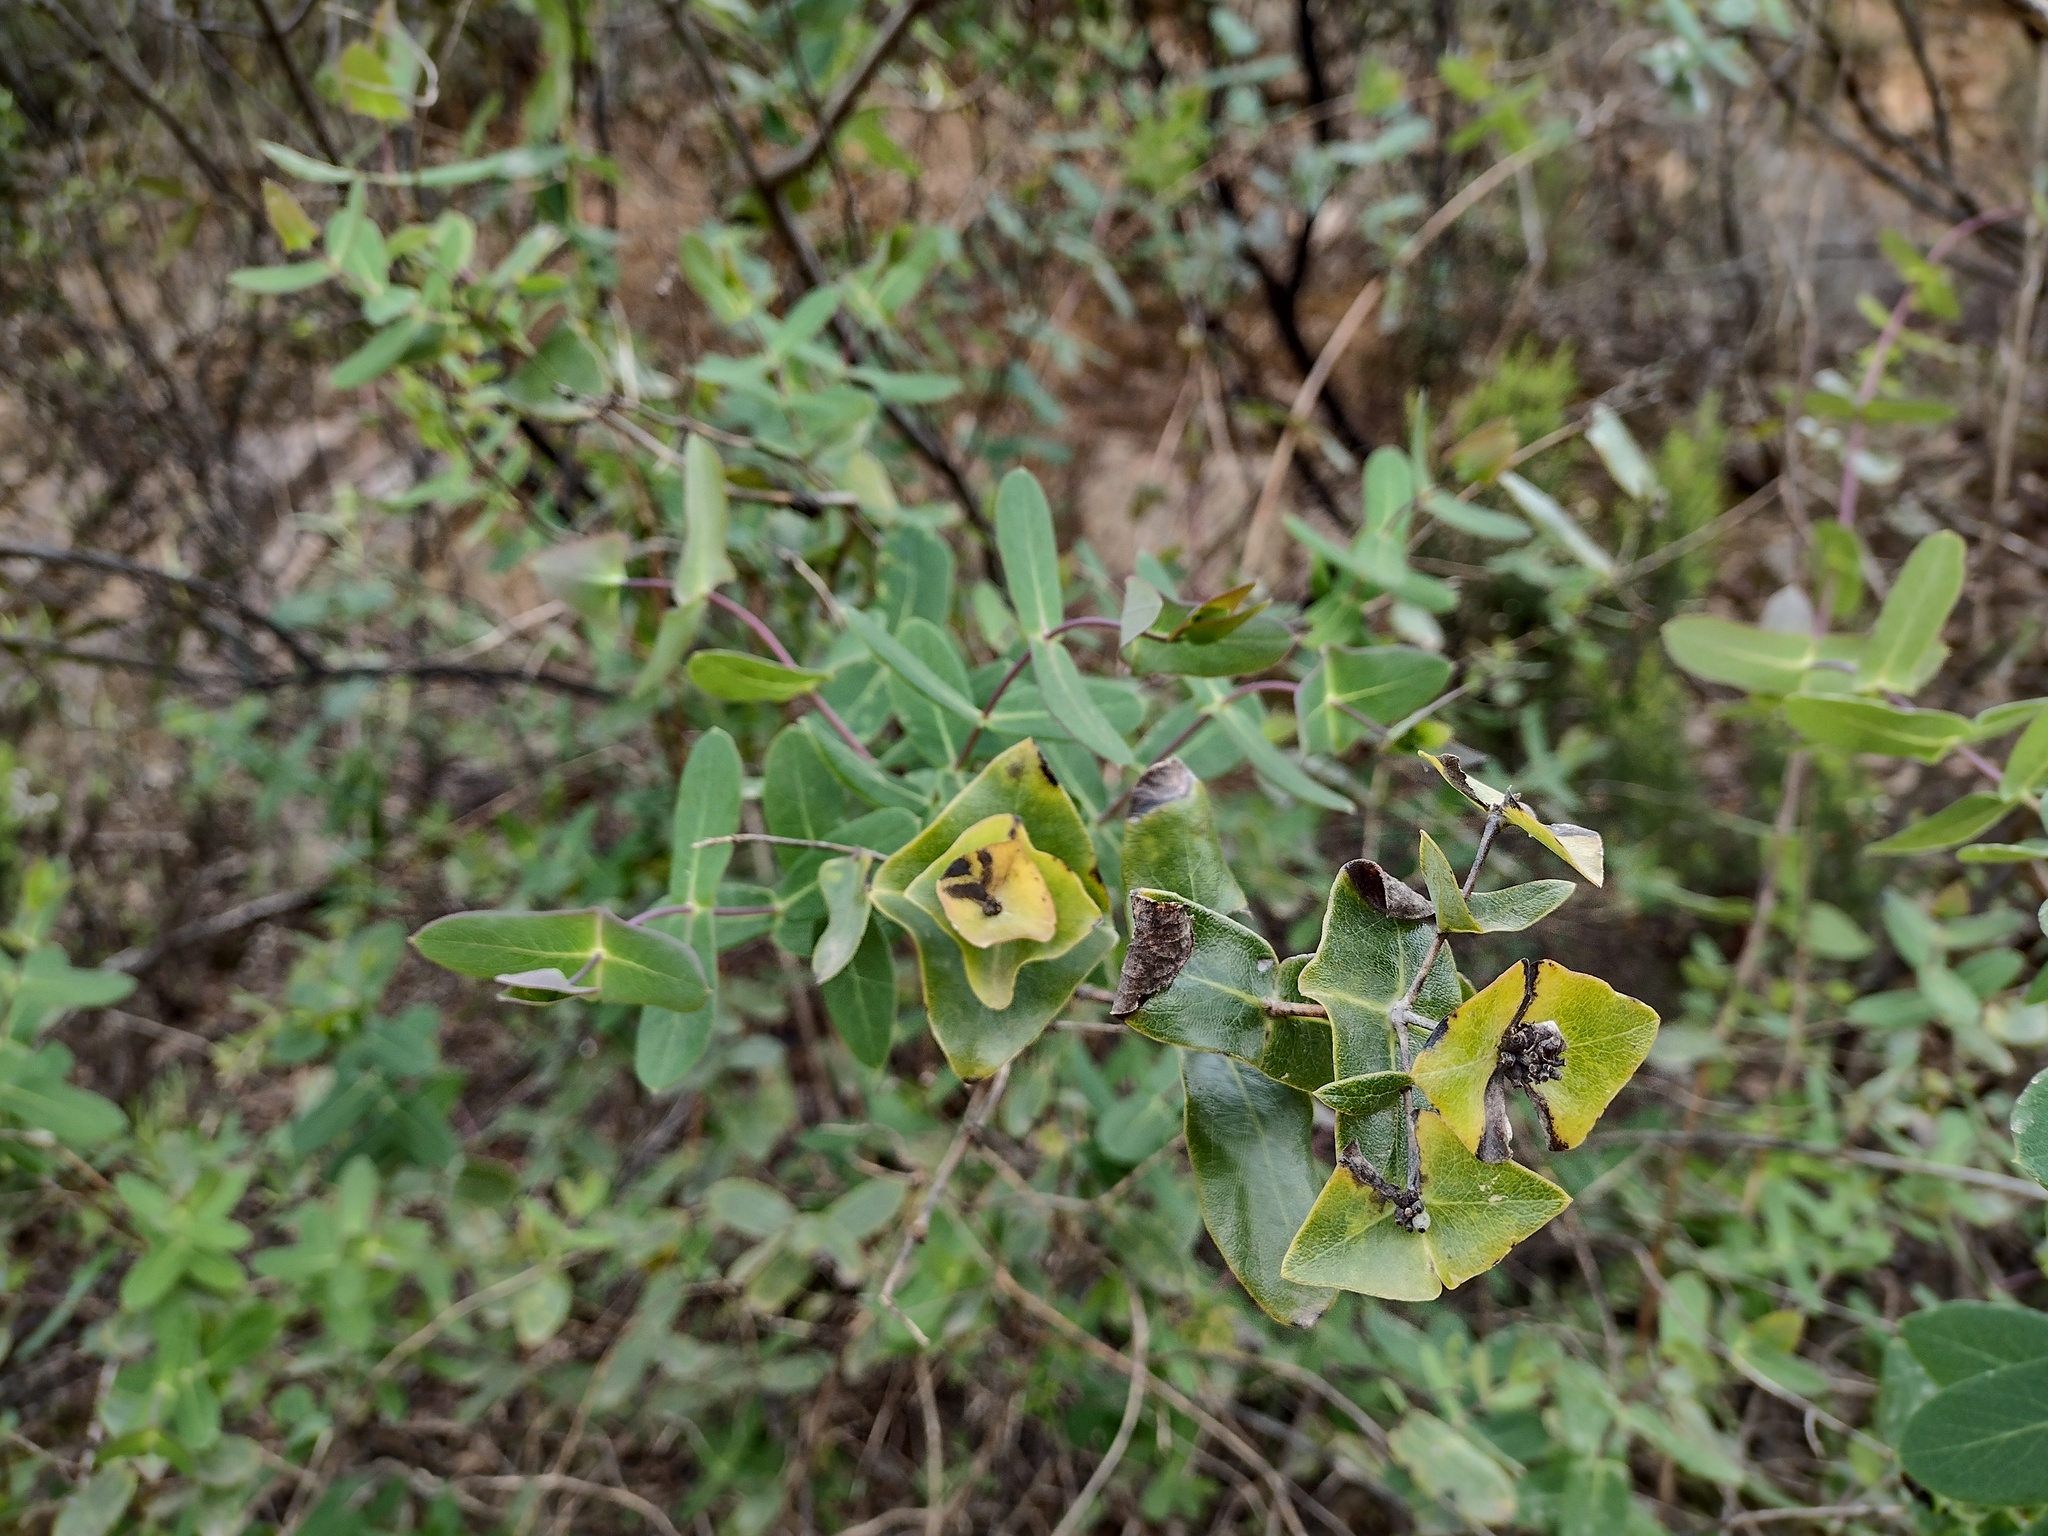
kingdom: Plantae
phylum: Tracheophyta
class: Magnoliopsida
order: Dipsacales
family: Caprifoliaceae
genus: Lonicera
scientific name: Lonicera implexa
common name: Minorca honeysuckle
